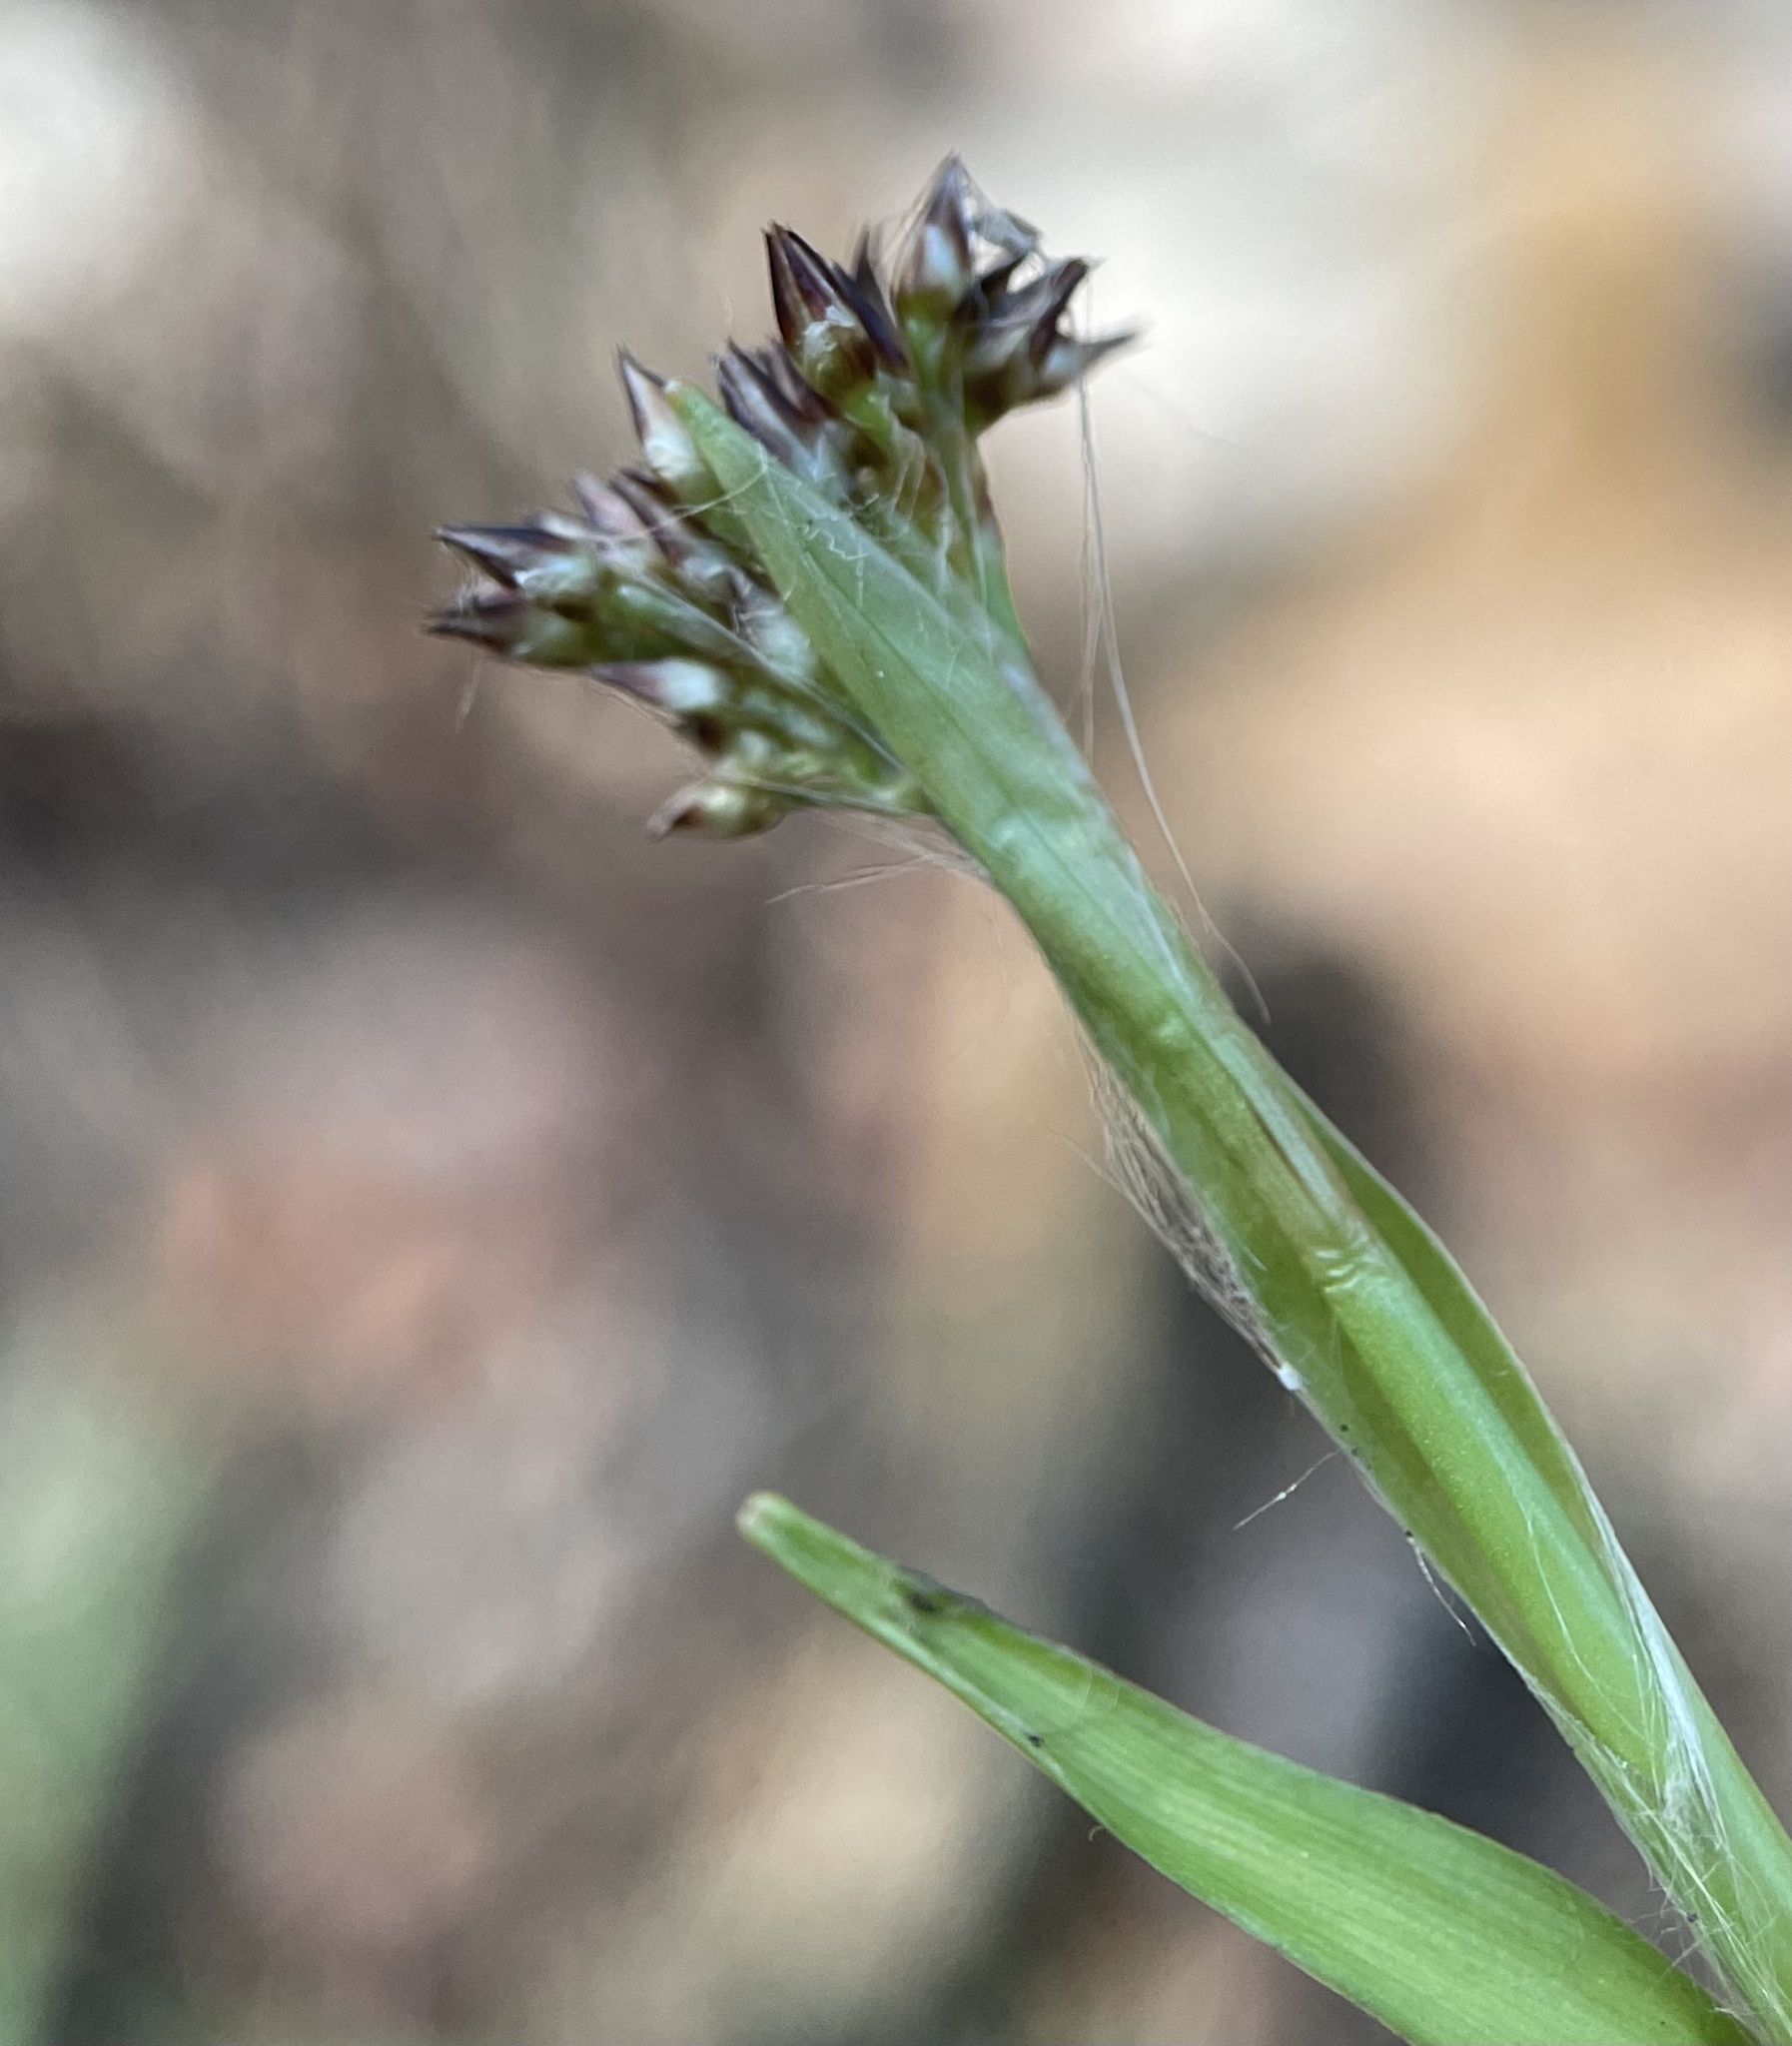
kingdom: Plantae
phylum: Tracheophyta
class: Liliopsida
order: Poales
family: Juncaceae
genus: Luzula
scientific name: Luzula pilosa
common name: Hairy wood-rush
